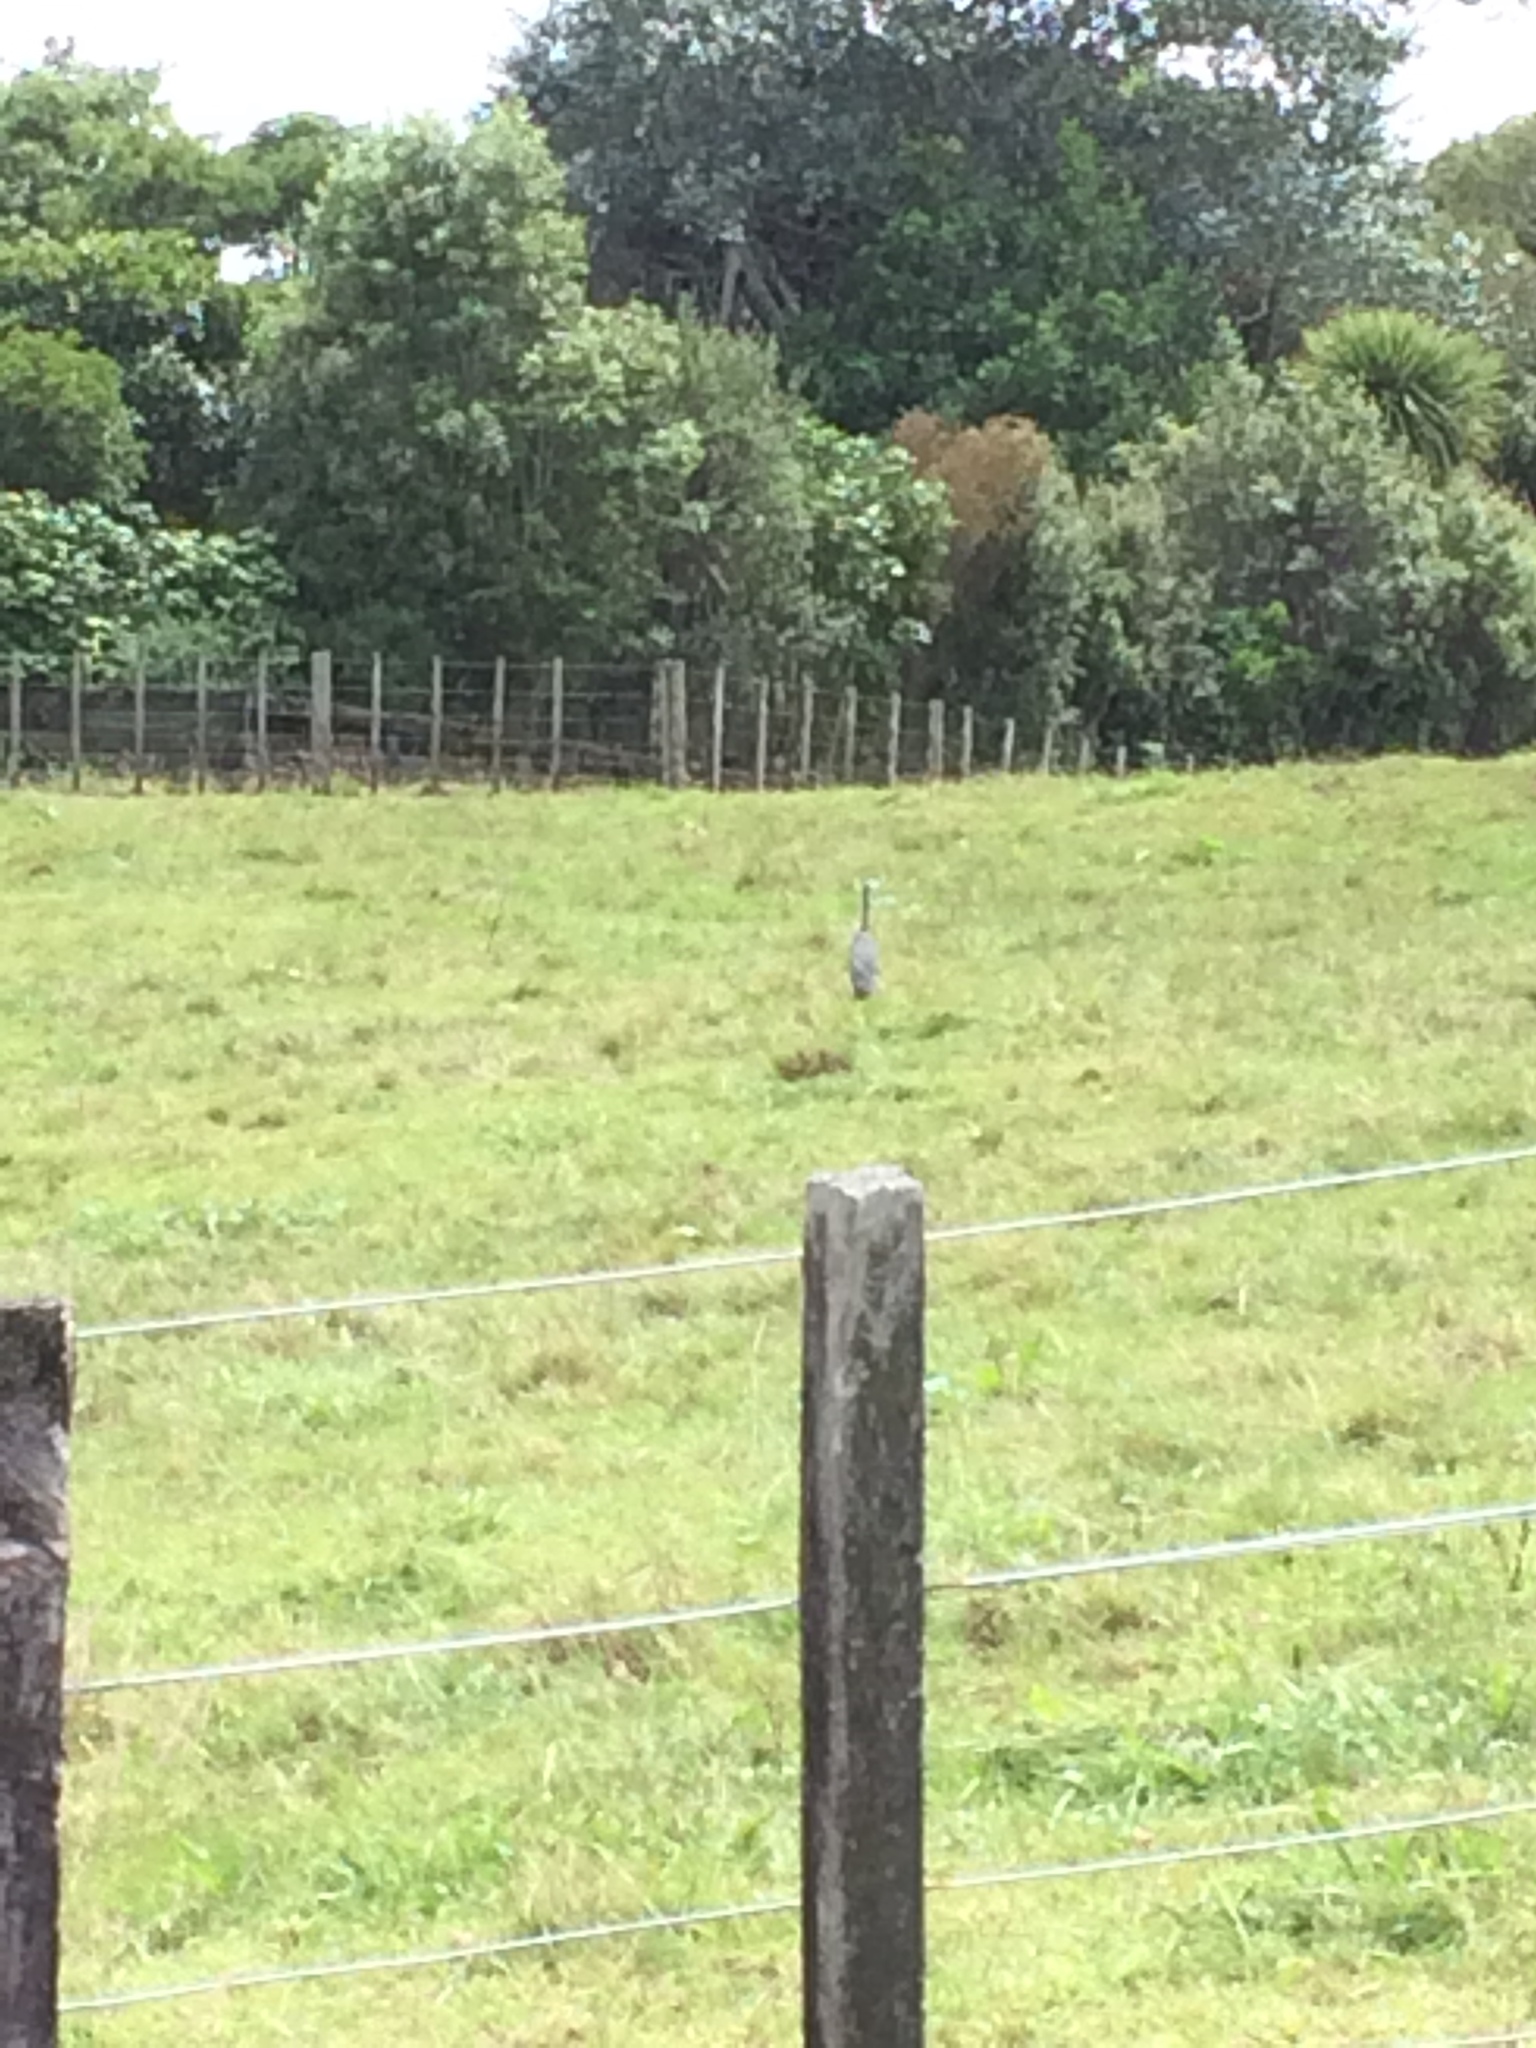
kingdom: Animalia
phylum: Chordata
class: Aves
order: Pelecaniformes
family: Ardeidae
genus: Egretta
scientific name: Egretta novaehollandiae
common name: White-faced heron
